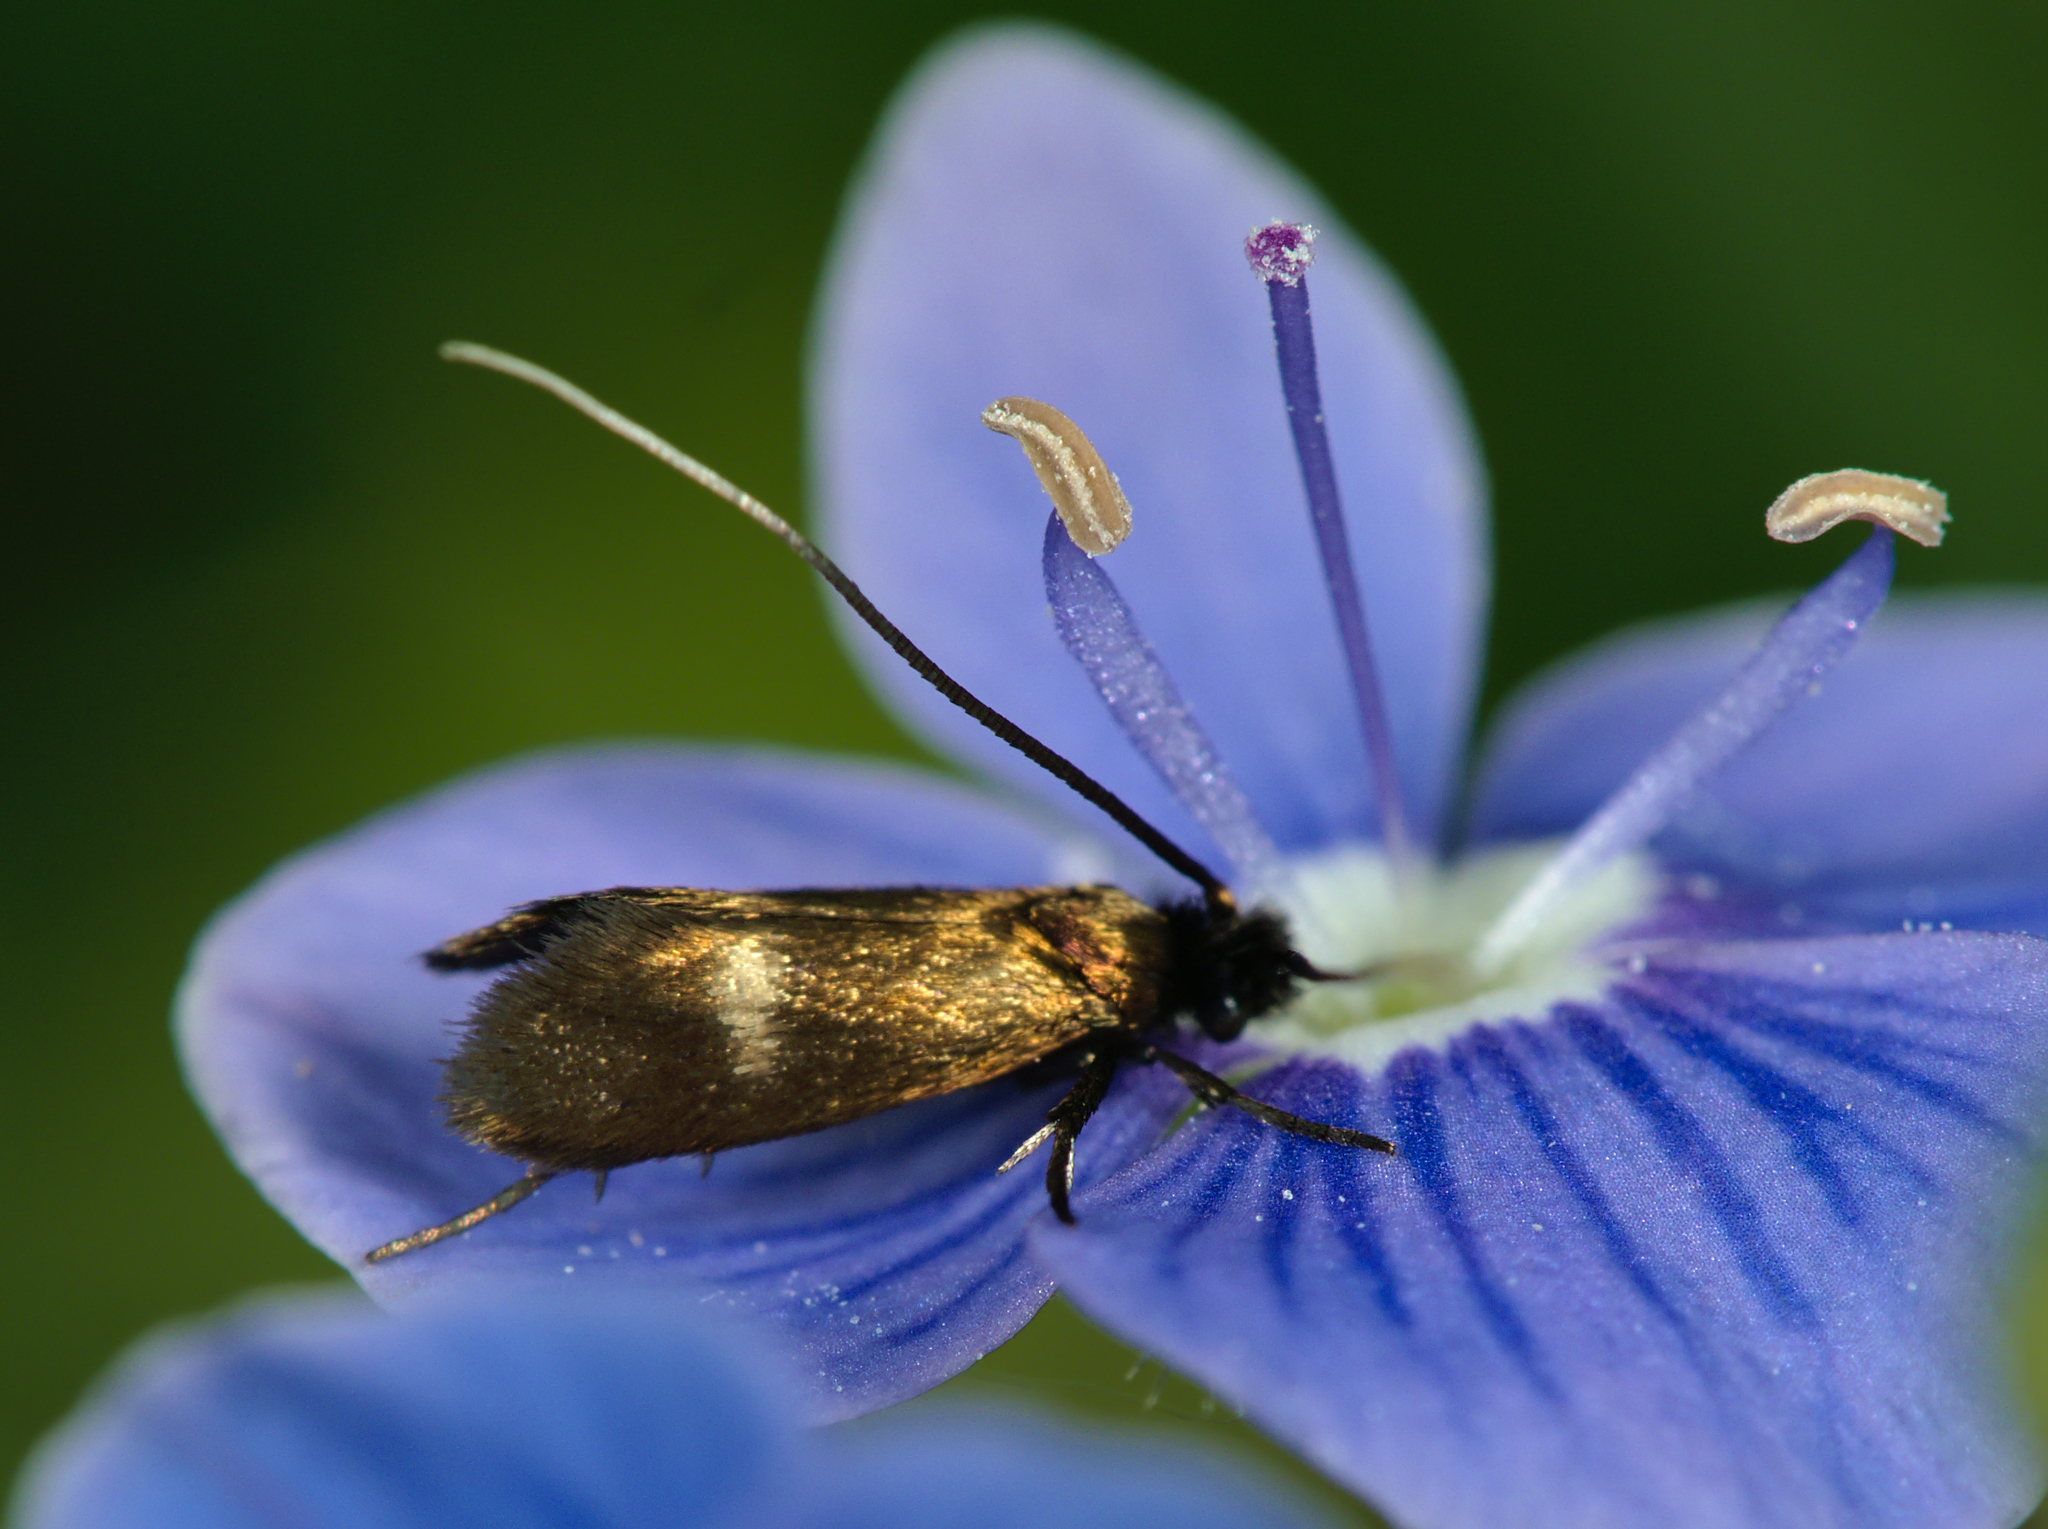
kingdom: Animalia
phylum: Arthropoda
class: Insecta
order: Lepidoptera
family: Adelidae
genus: Cauchas
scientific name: Cauchas fibulella
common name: Little long-horn
